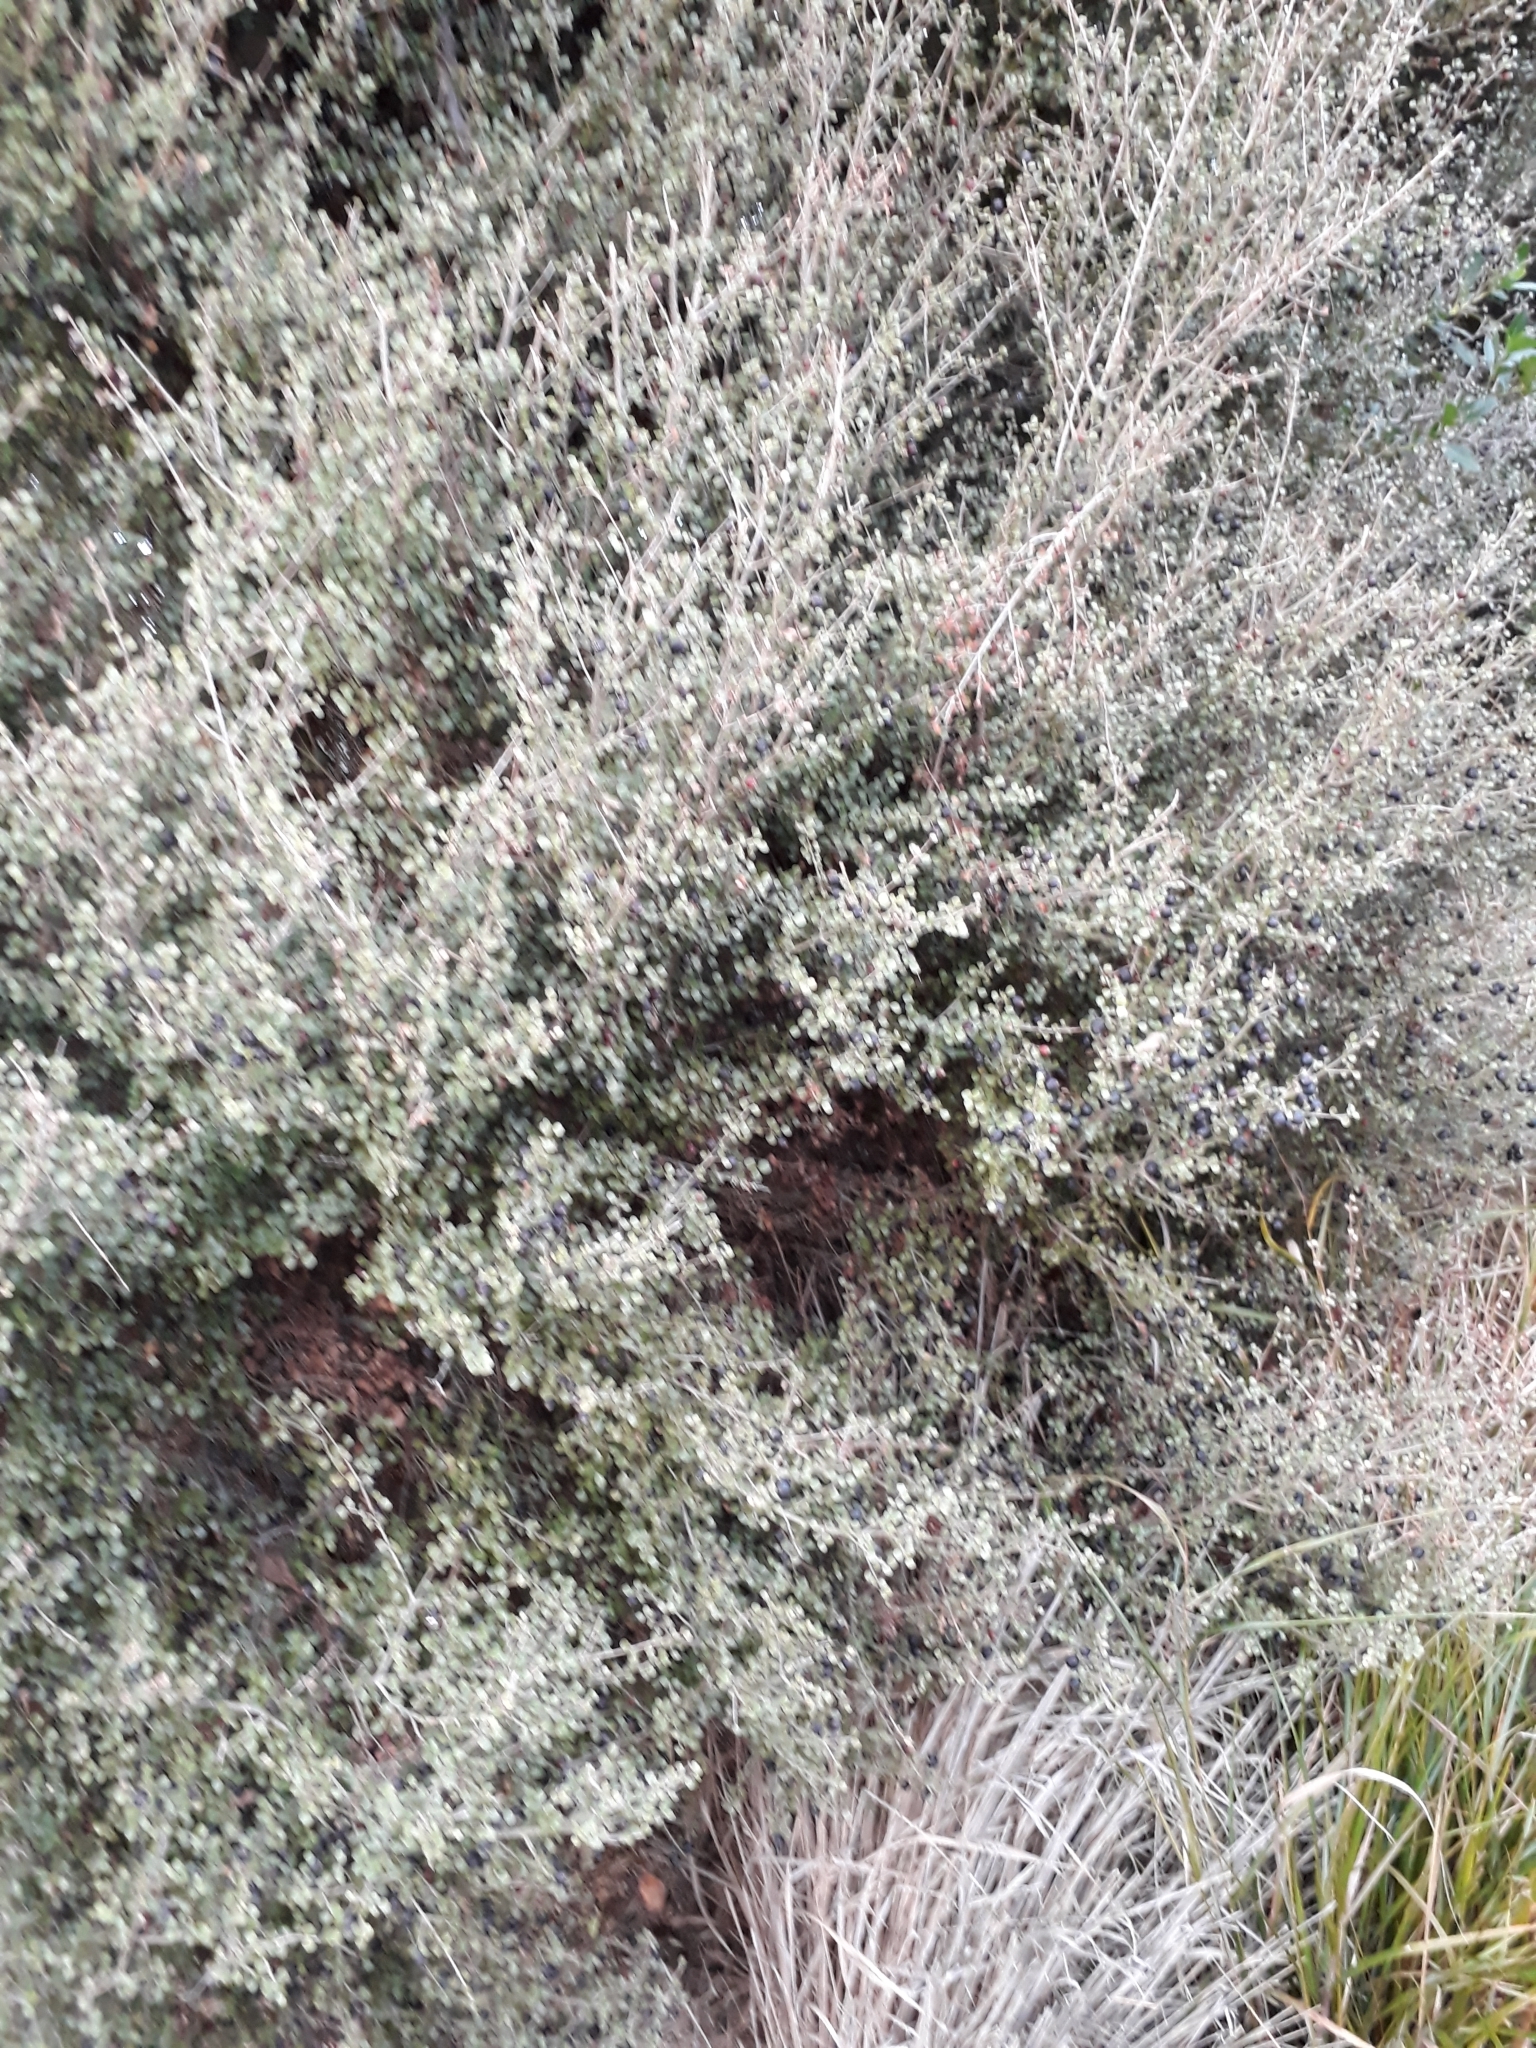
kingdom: Plantae
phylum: Tracheophyta
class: Magnoliopsida
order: Myrtales
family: Myrtaceae
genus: Lophomyrtus
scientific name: Lophomyrtus obcordata
